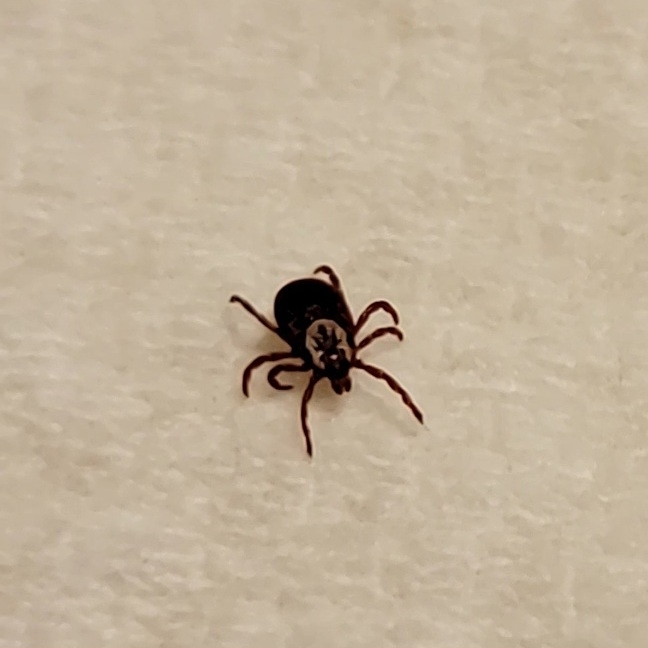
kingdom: Animalia
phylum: Arthropoda
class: Arachnida
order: Ixodida
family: Ixodidae
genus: Dermacentor
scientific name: Dermacentor variabilis
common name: American dog tick
